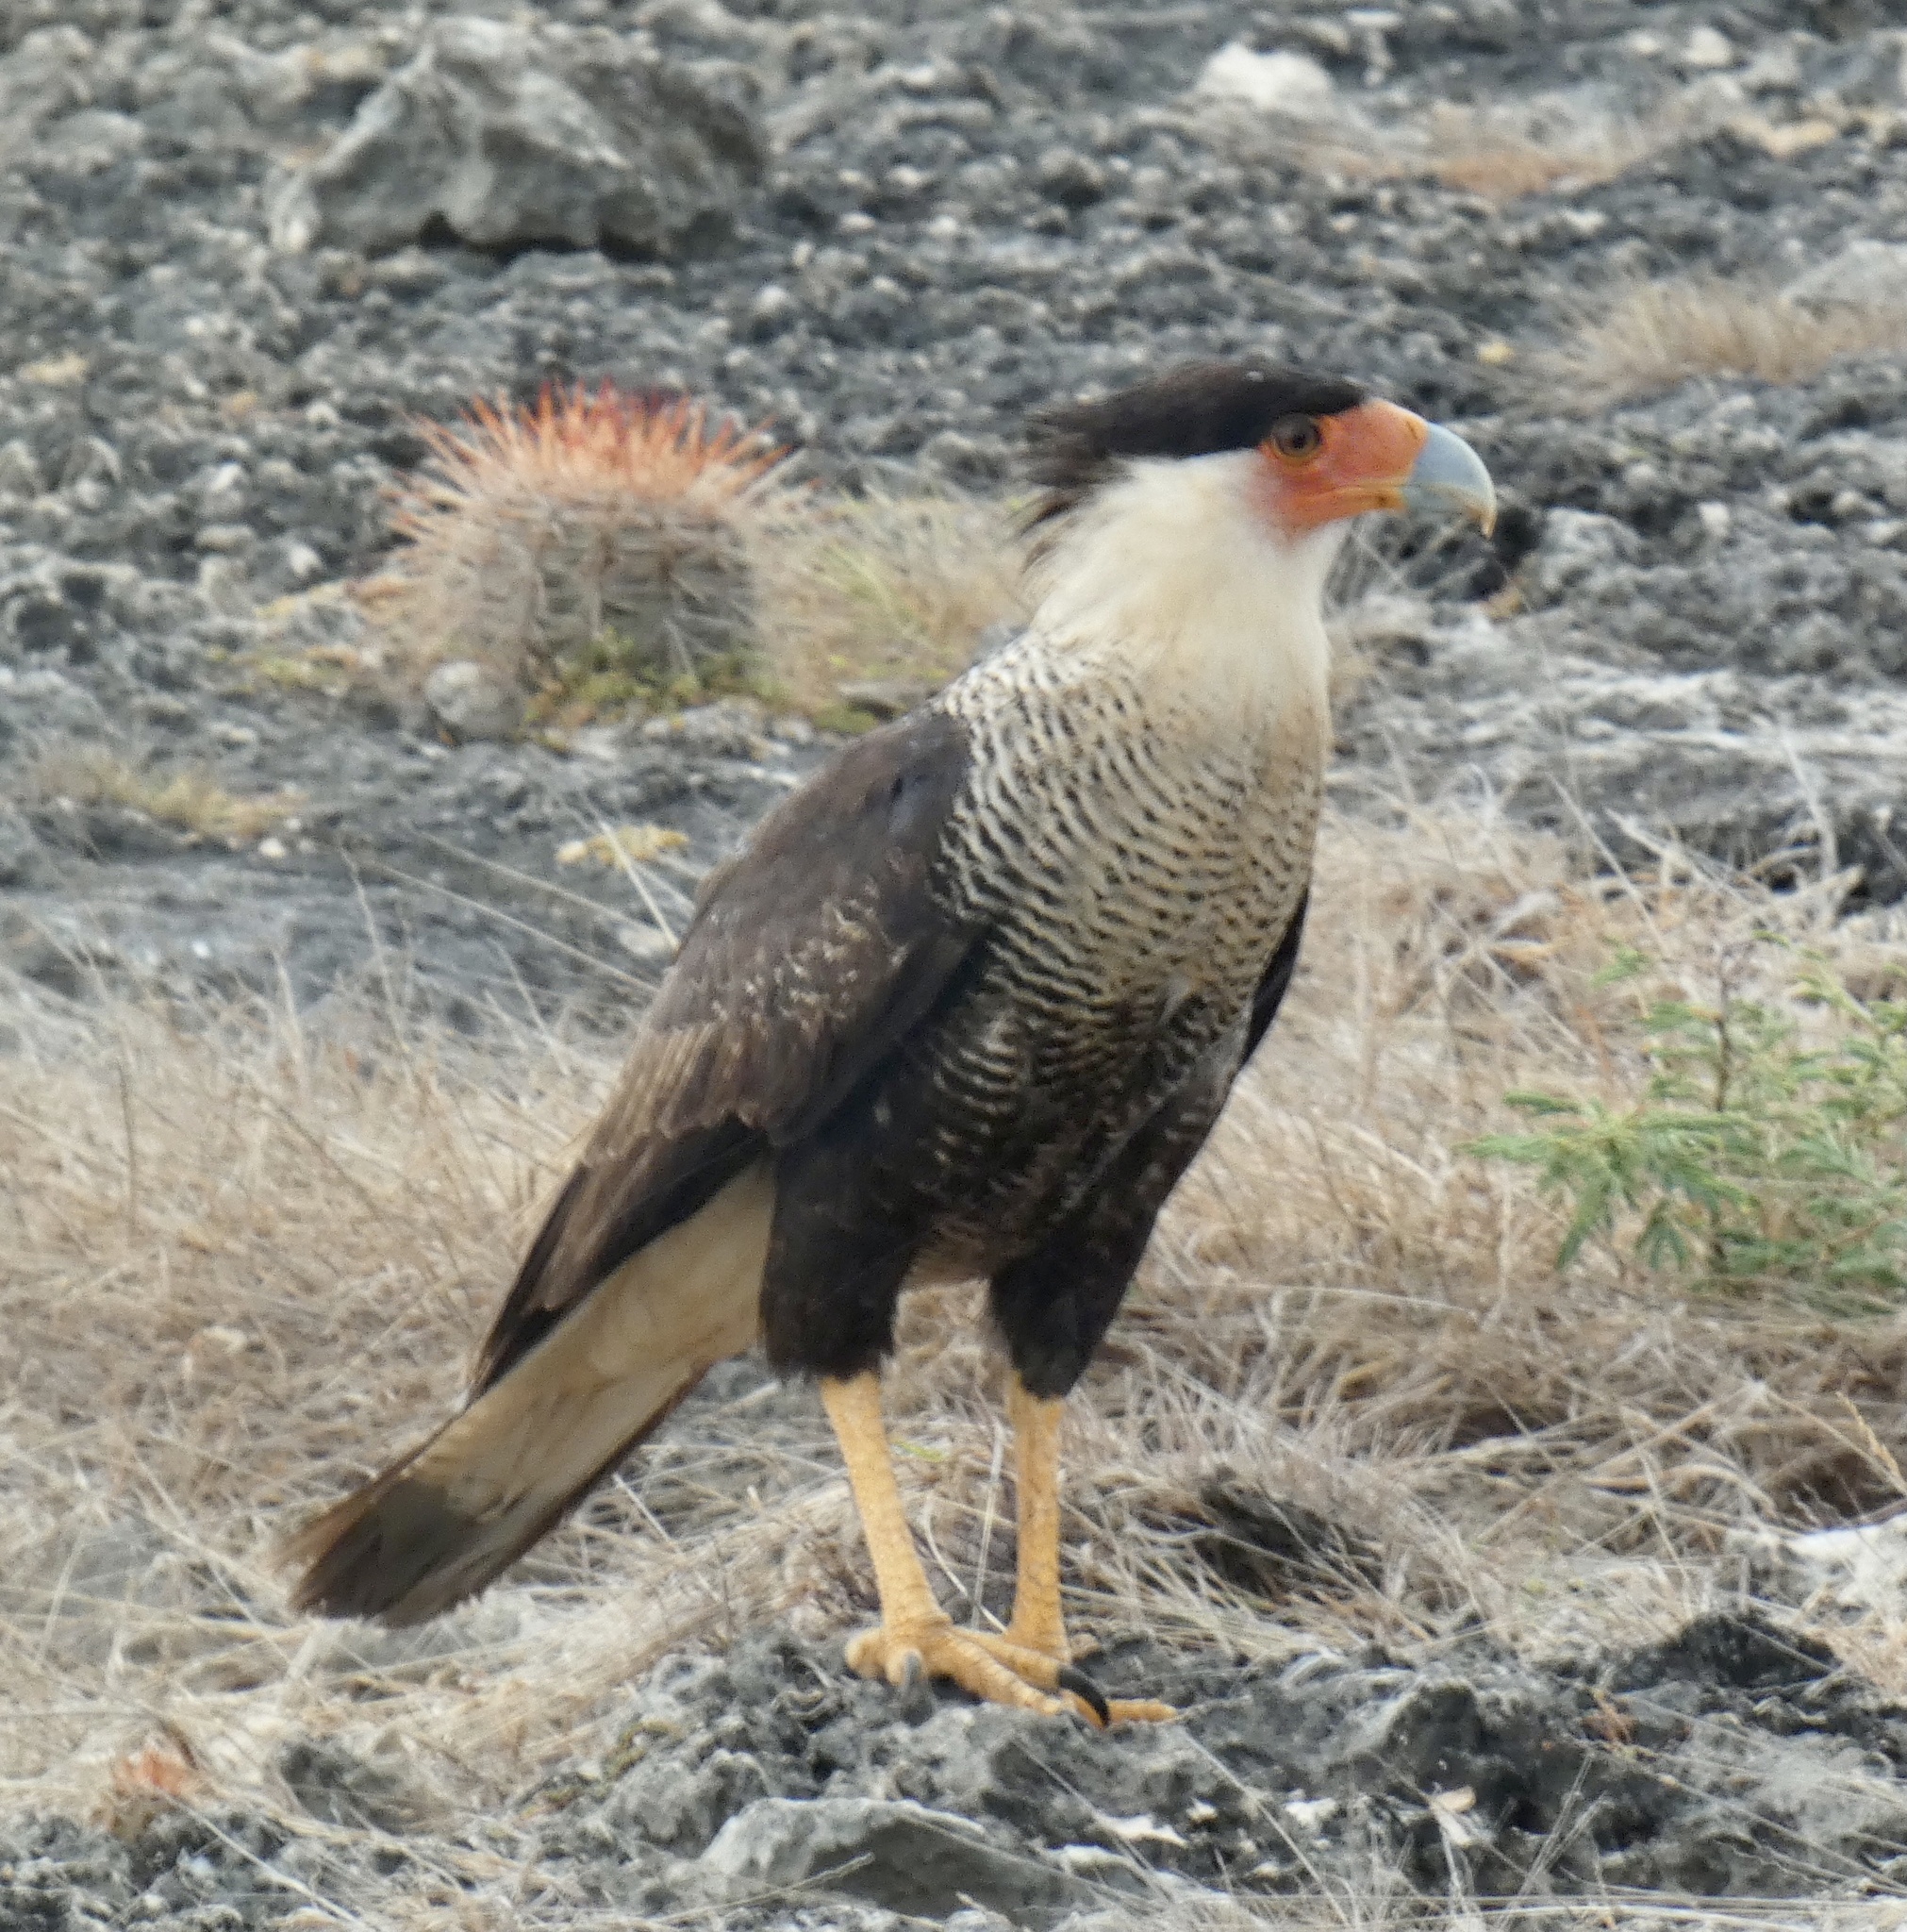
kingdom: Animalia
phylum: Chordata
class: Aves
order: Falconiformes
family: Falconidae
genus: Caracara
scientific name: Caracara plancus
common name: Southern caracara
